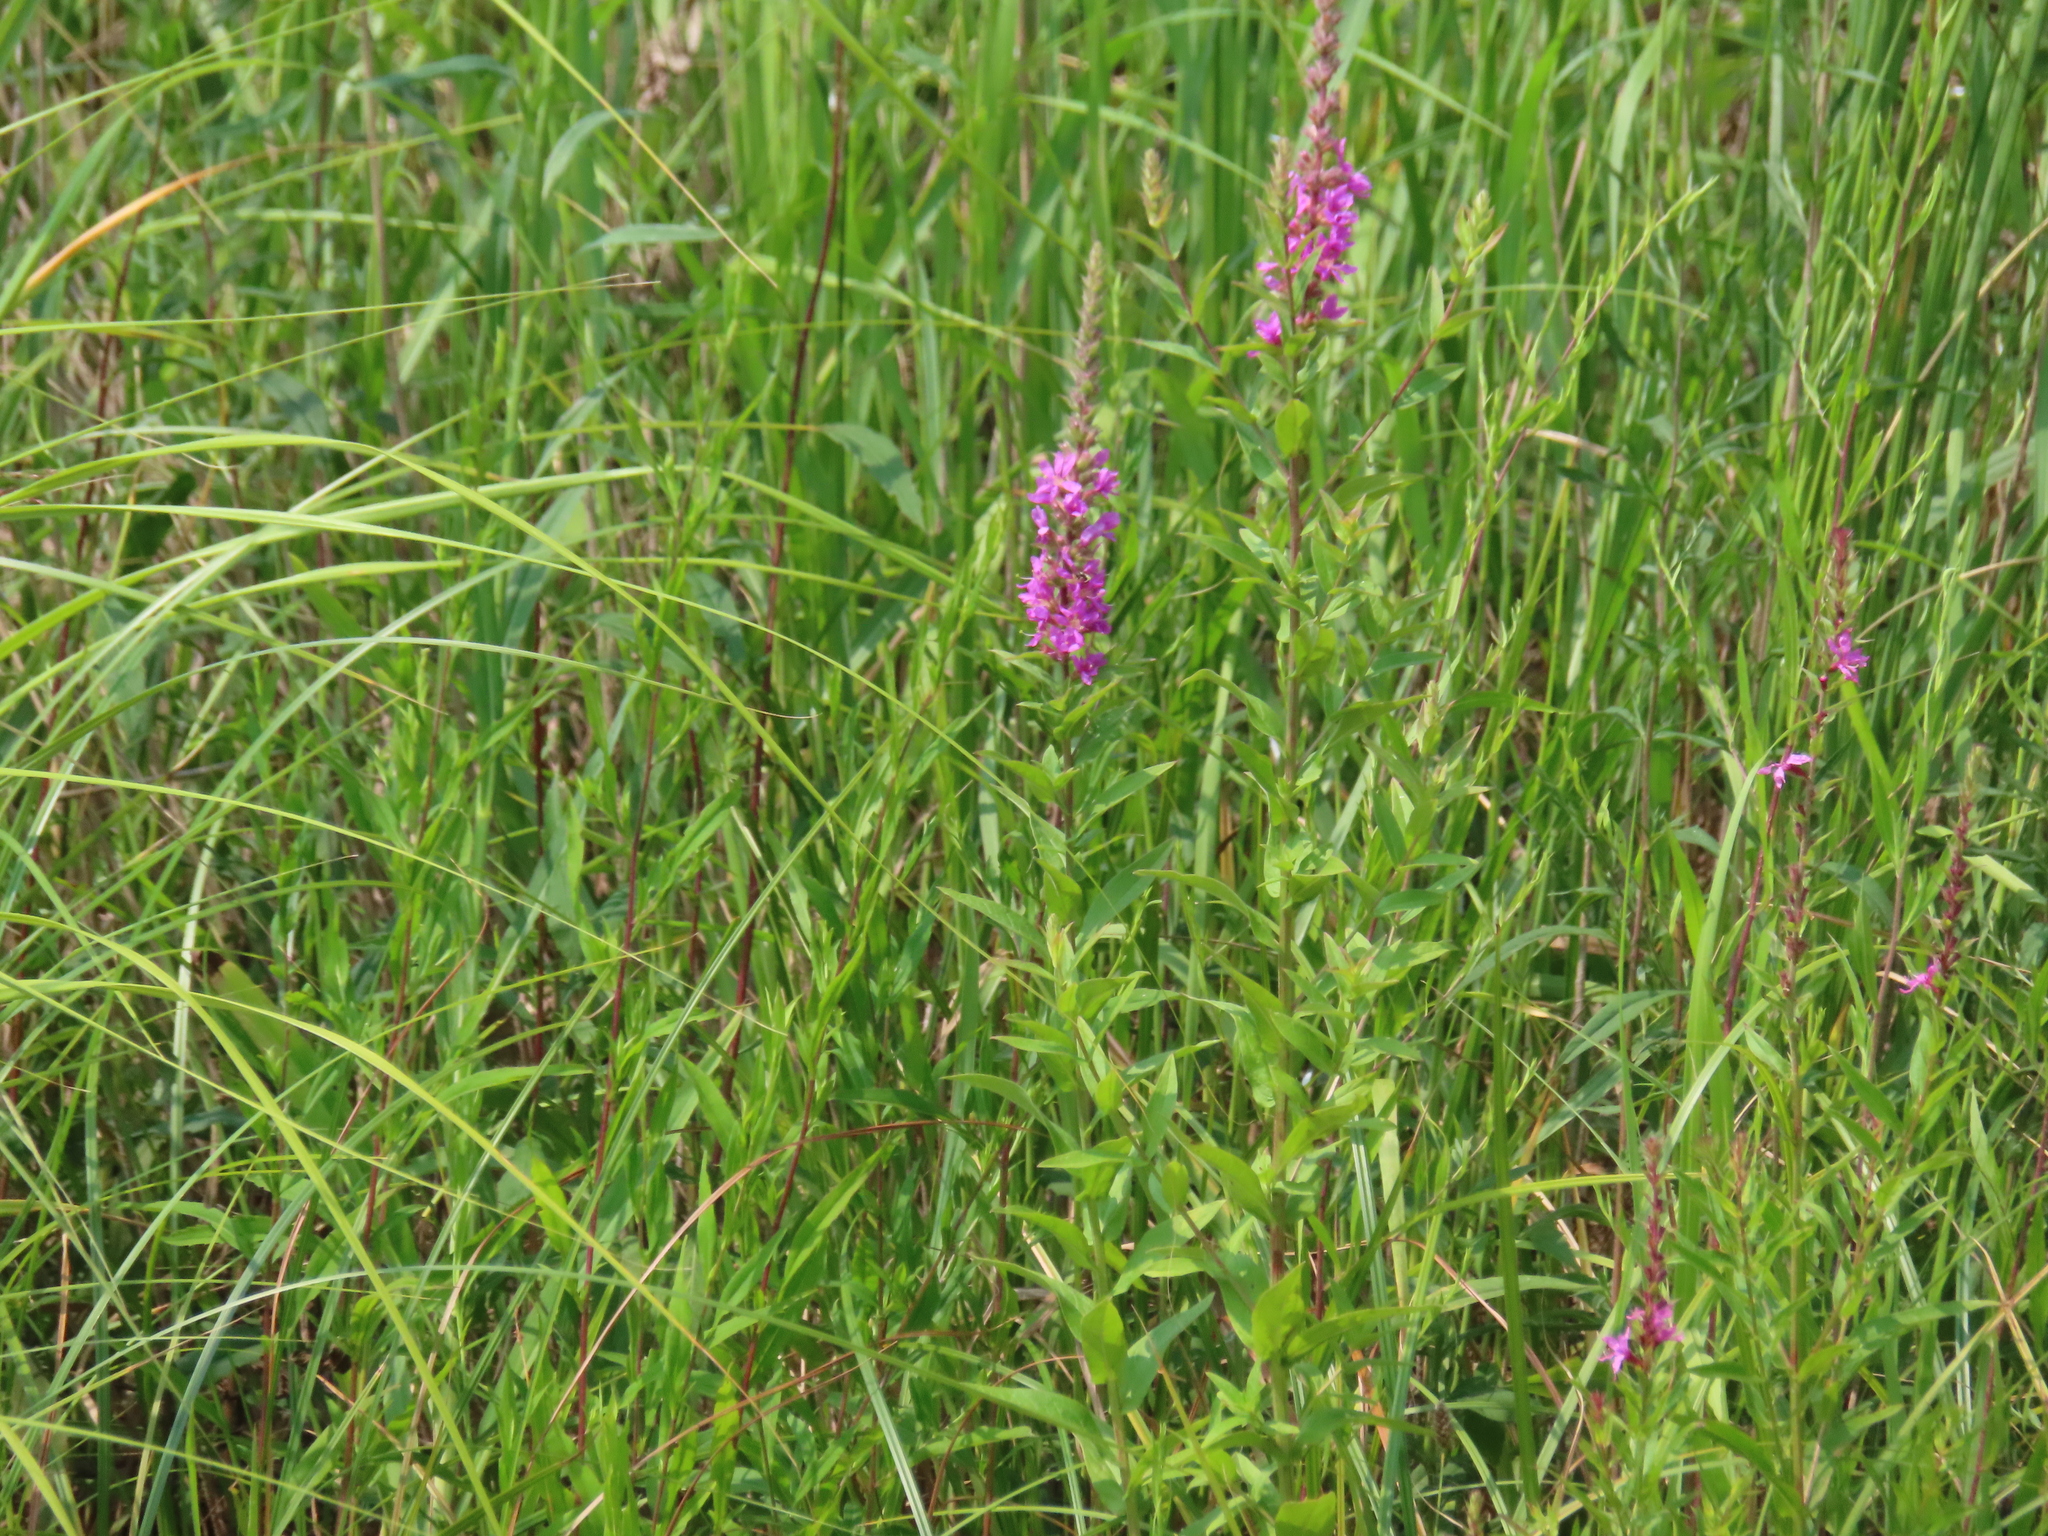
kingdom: Plantae
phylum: Tracheophyta
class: Magnoliopsida
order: Myrtales
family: Lythraceae
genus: Lythrum
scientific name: Lythrum salicaria
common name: Purple loosestrife
